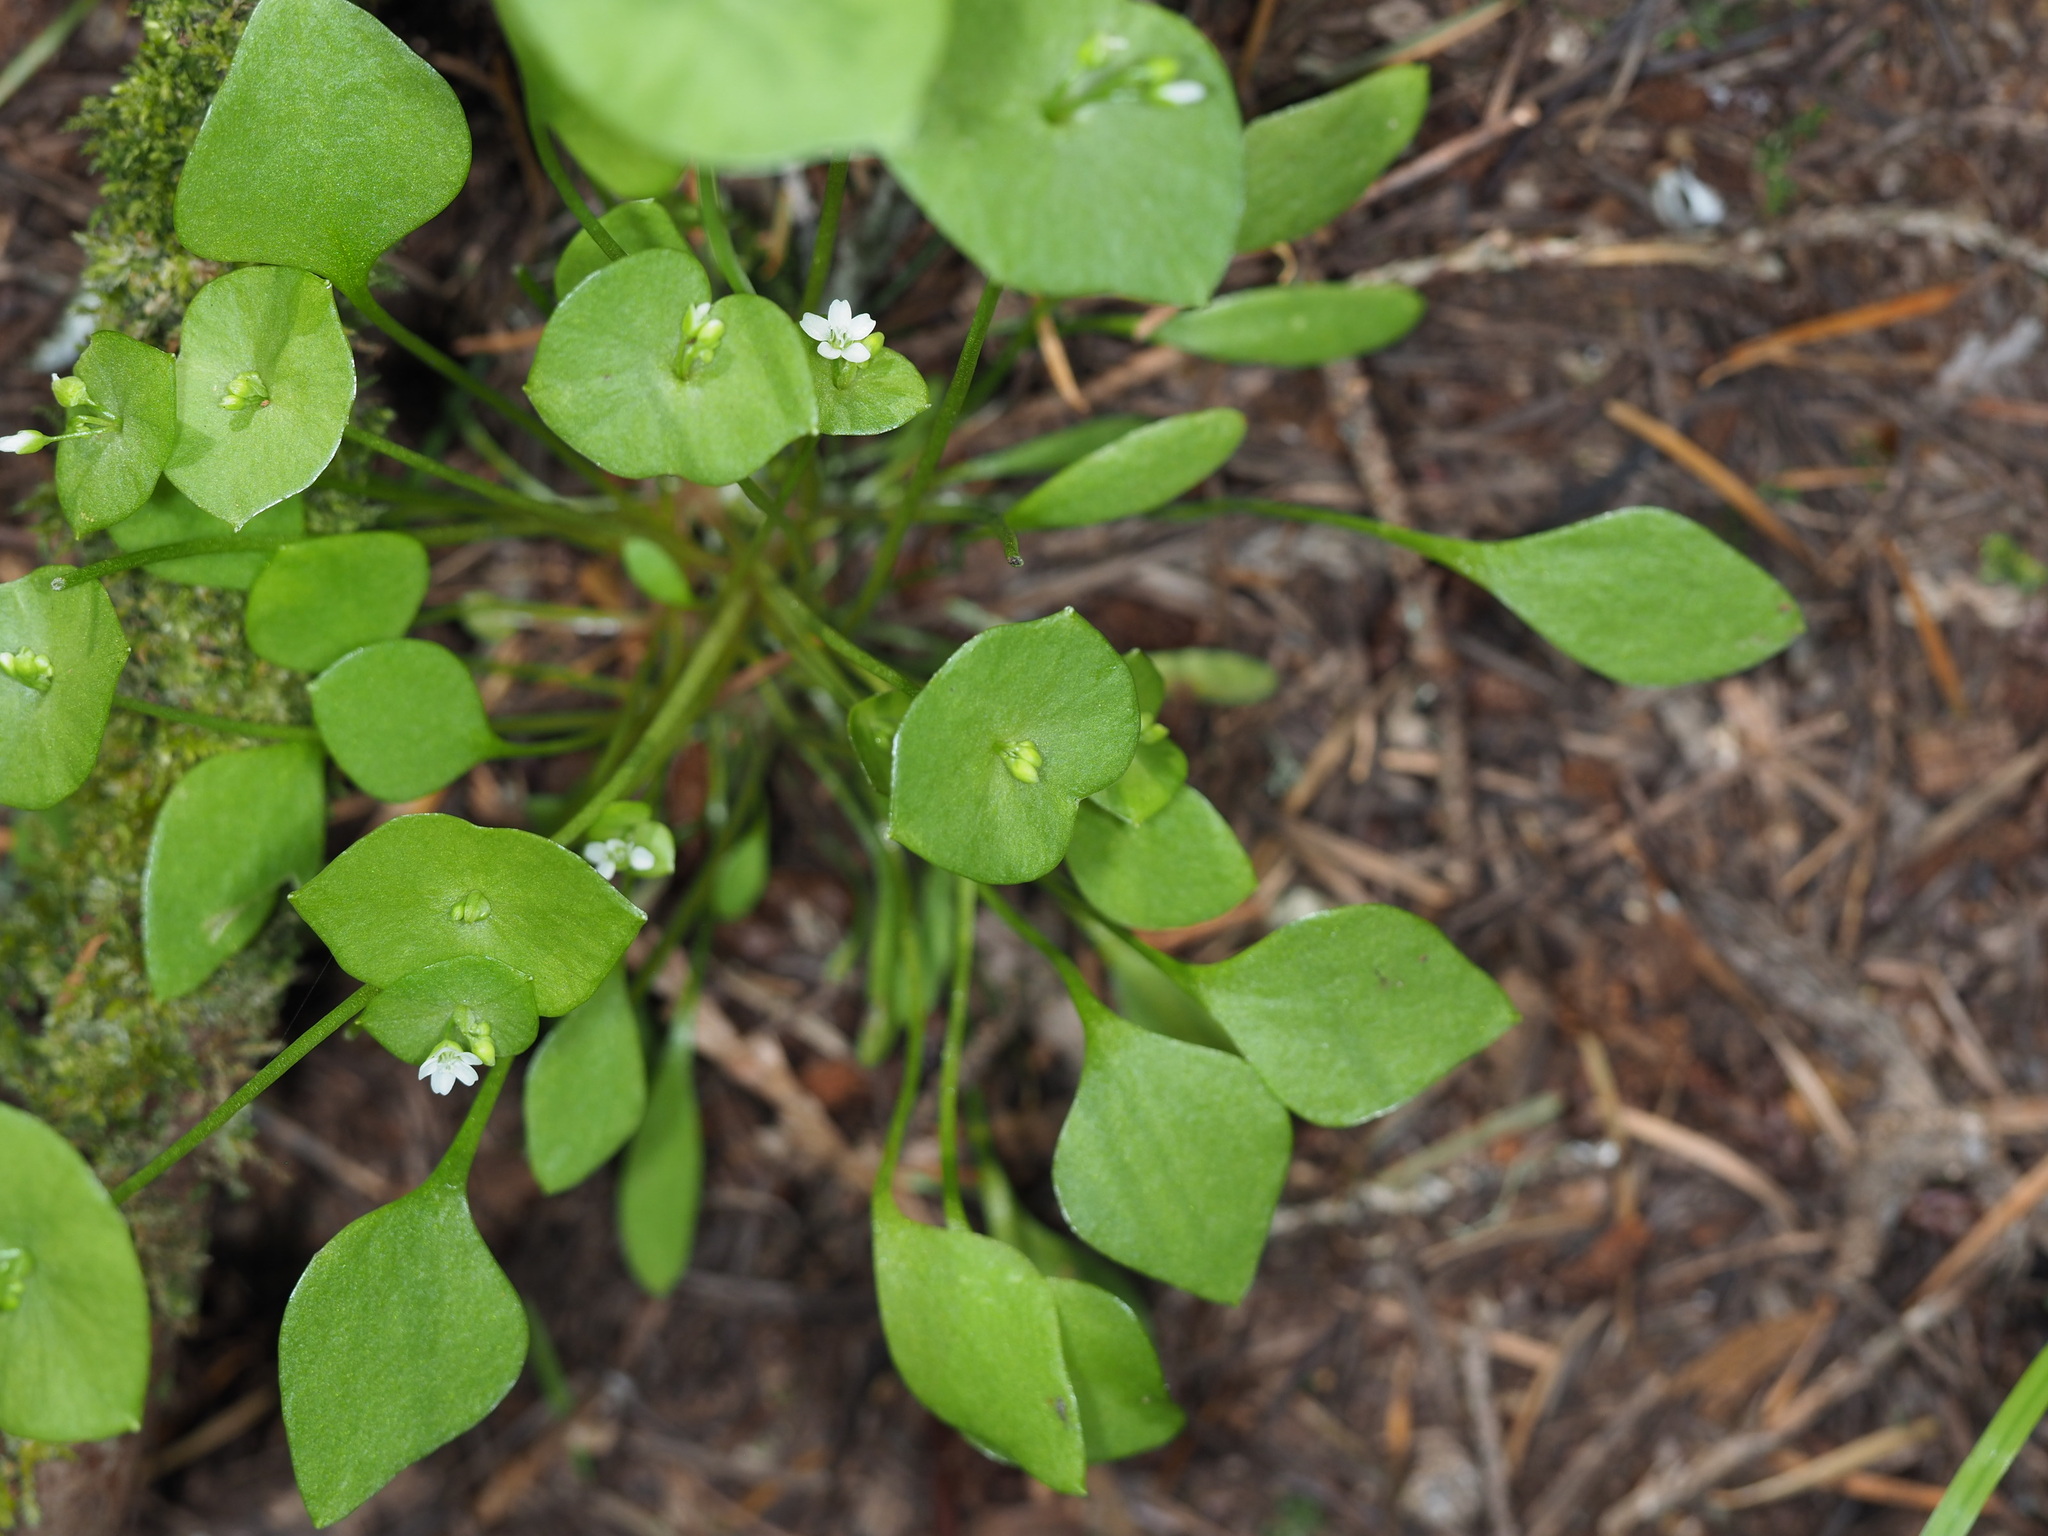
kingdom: Plantae
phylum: Tracheophyta
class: Magnoliopsida
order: Caryophyllales
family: Montiaceae
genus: Claytonia
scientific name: Claytonia perfoliata
